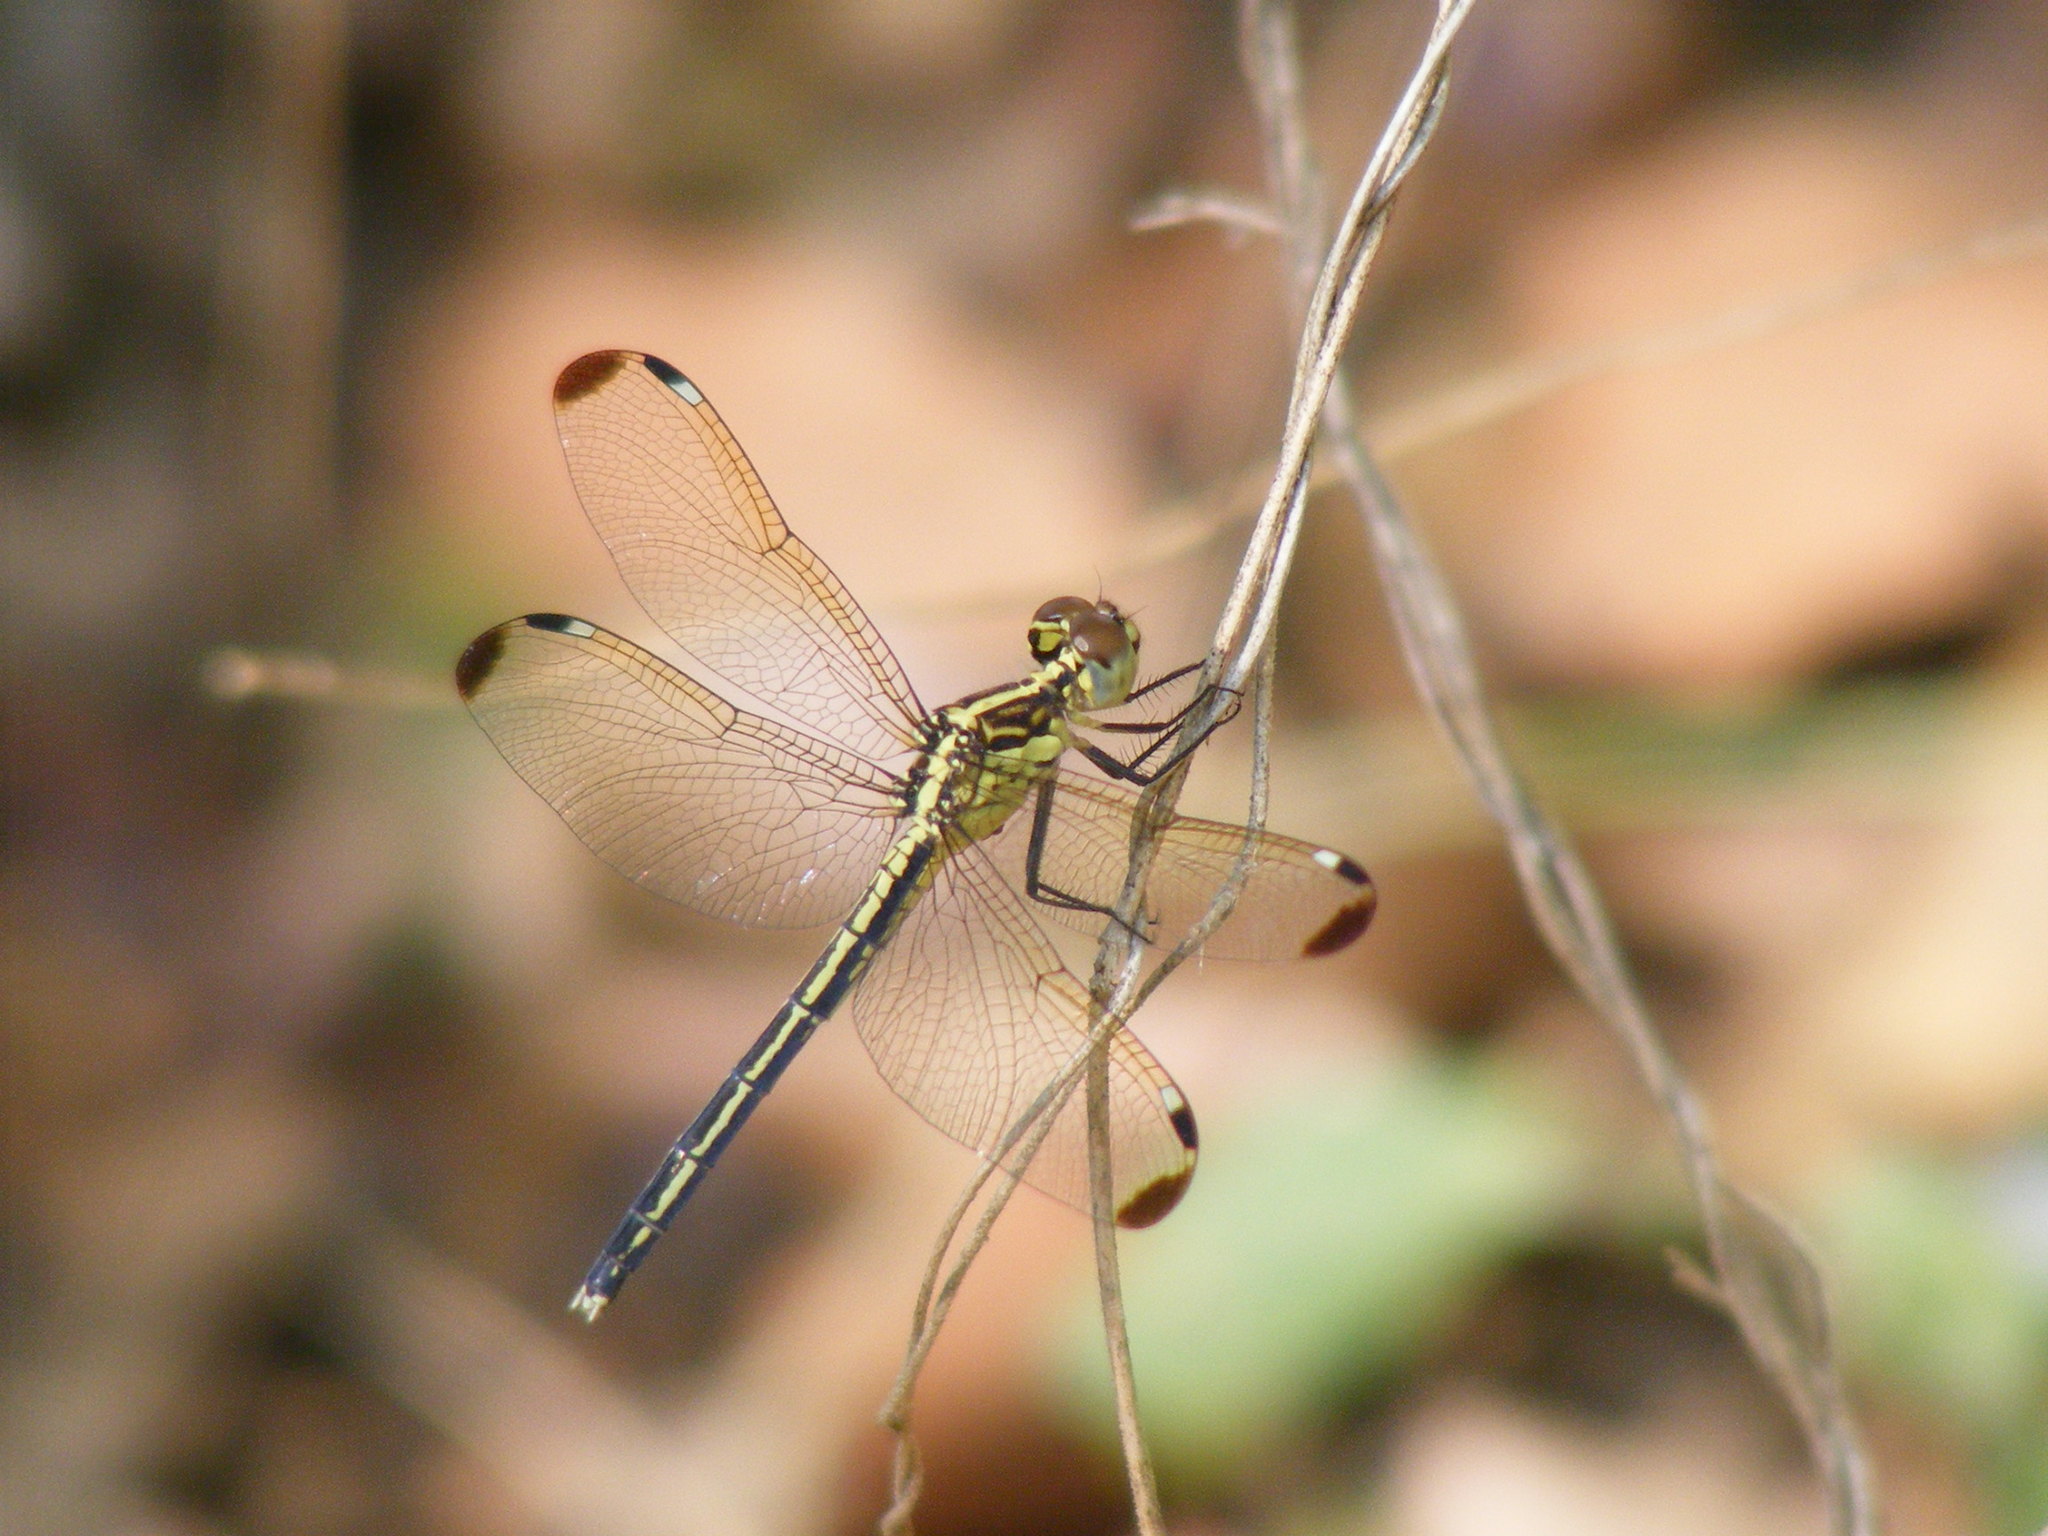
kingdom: Animalia
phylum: Arthropoda
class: Insecta
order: Odonata
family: Libellulidae
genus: Hemistigma
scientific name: Hemistigma albipunctum
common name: African pied-spot
